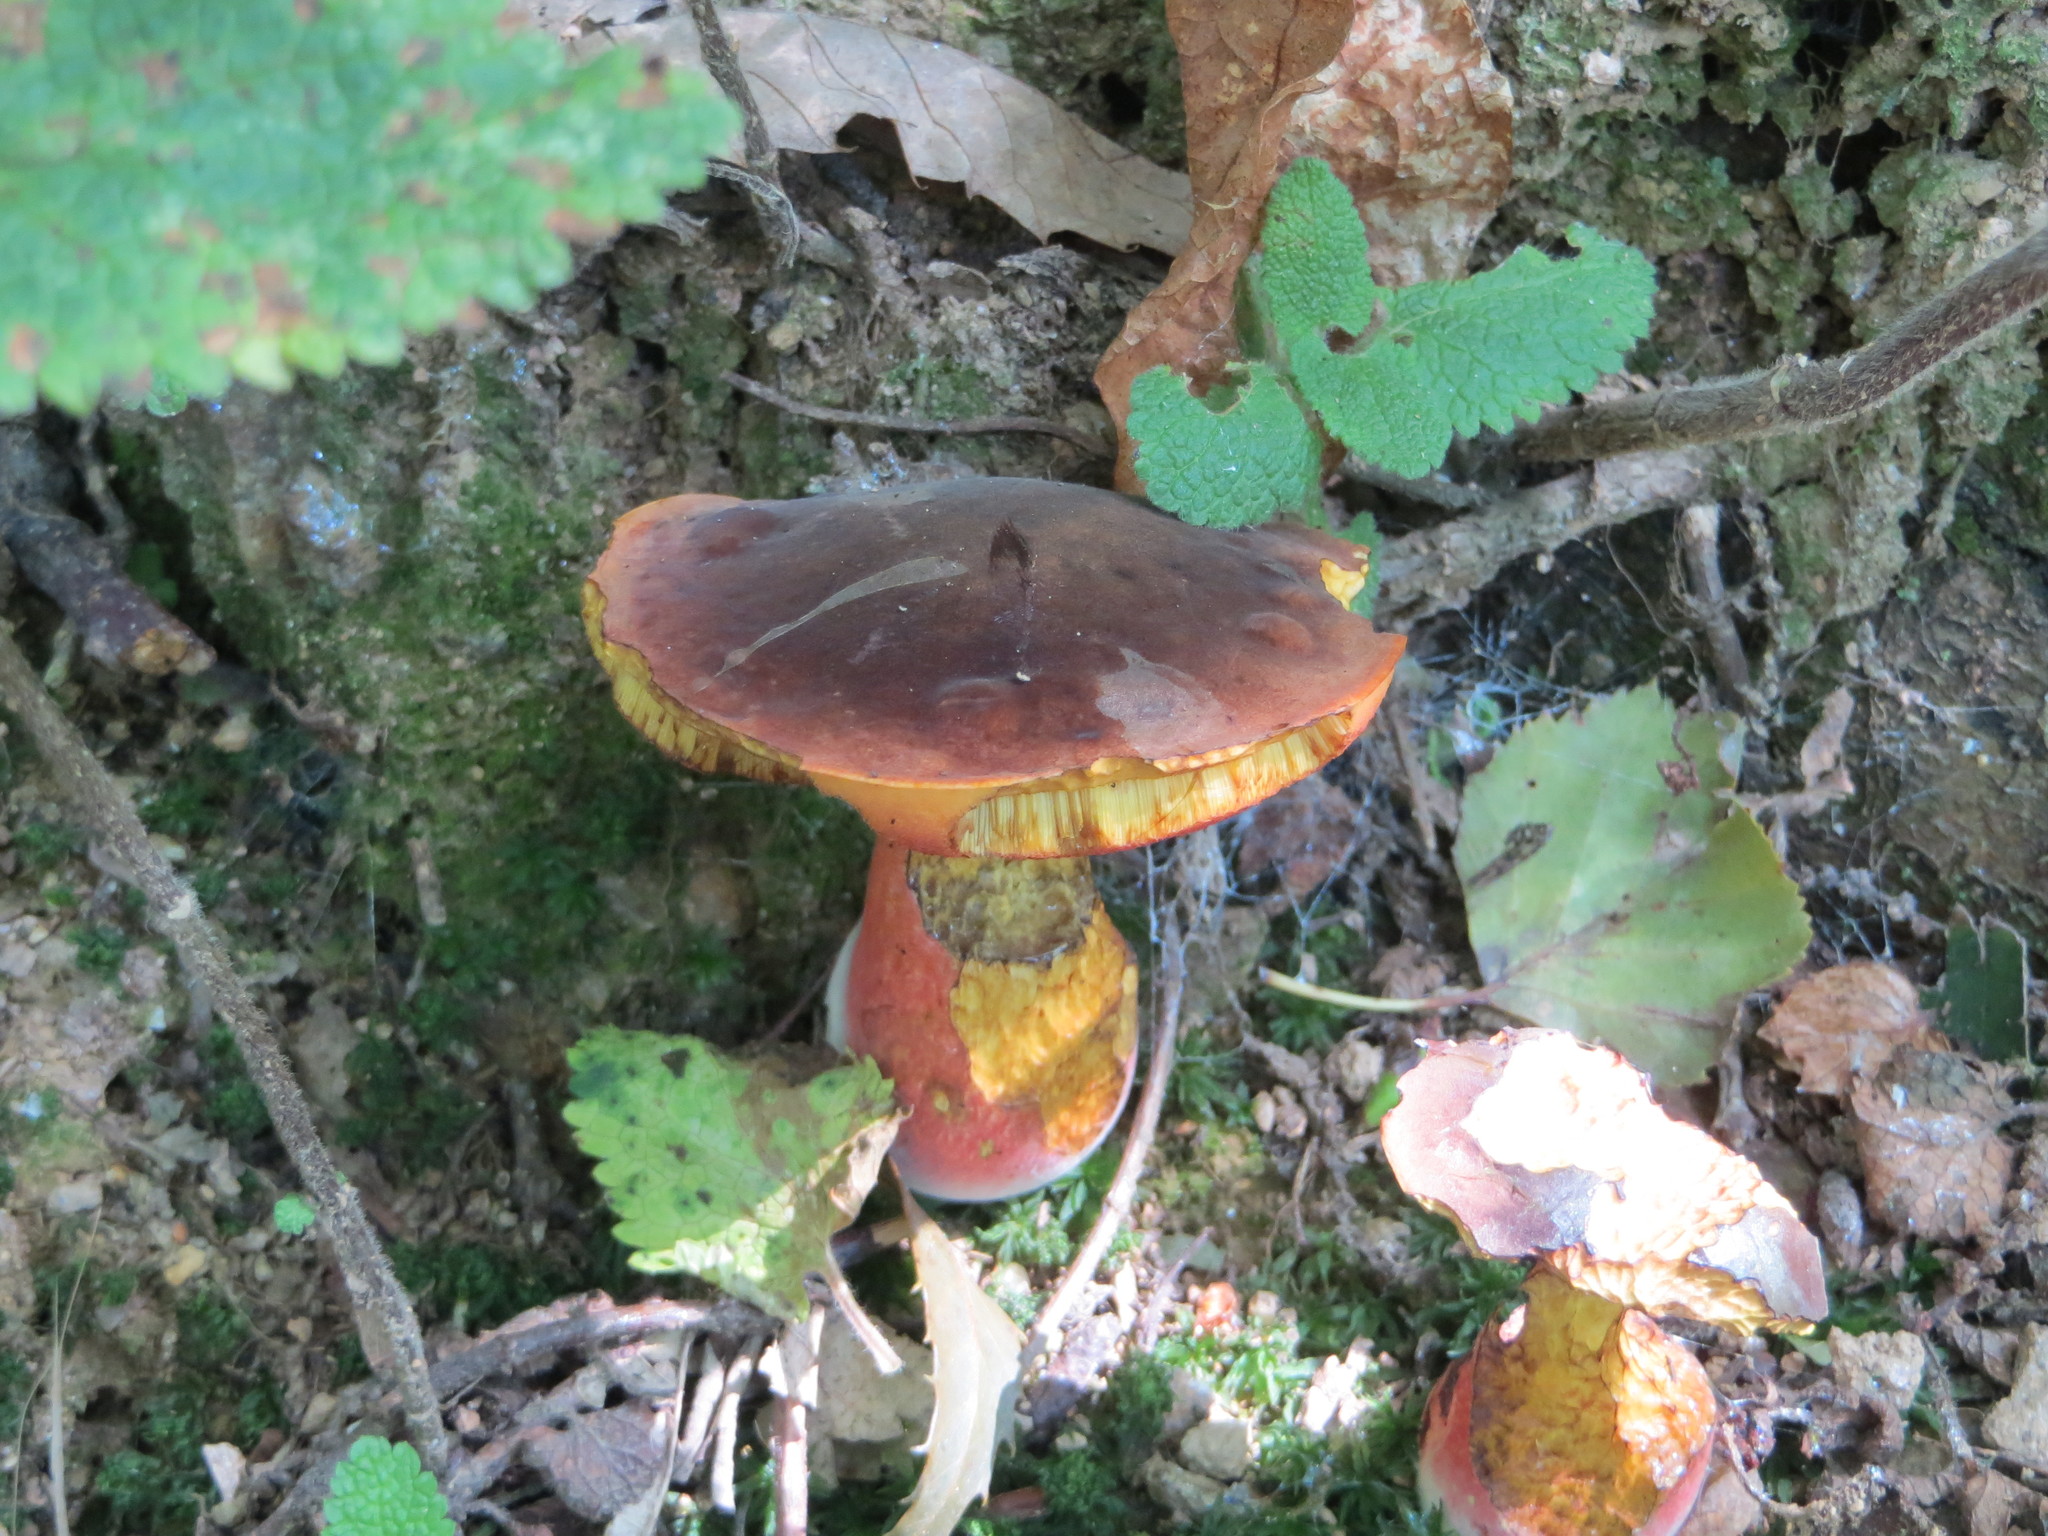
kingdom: Fungi
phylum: Basidiomycota
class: Agaricomycetes
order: Boletales
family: Boletaceae
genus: Neoboletus
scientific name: Neoboletus erythropus
